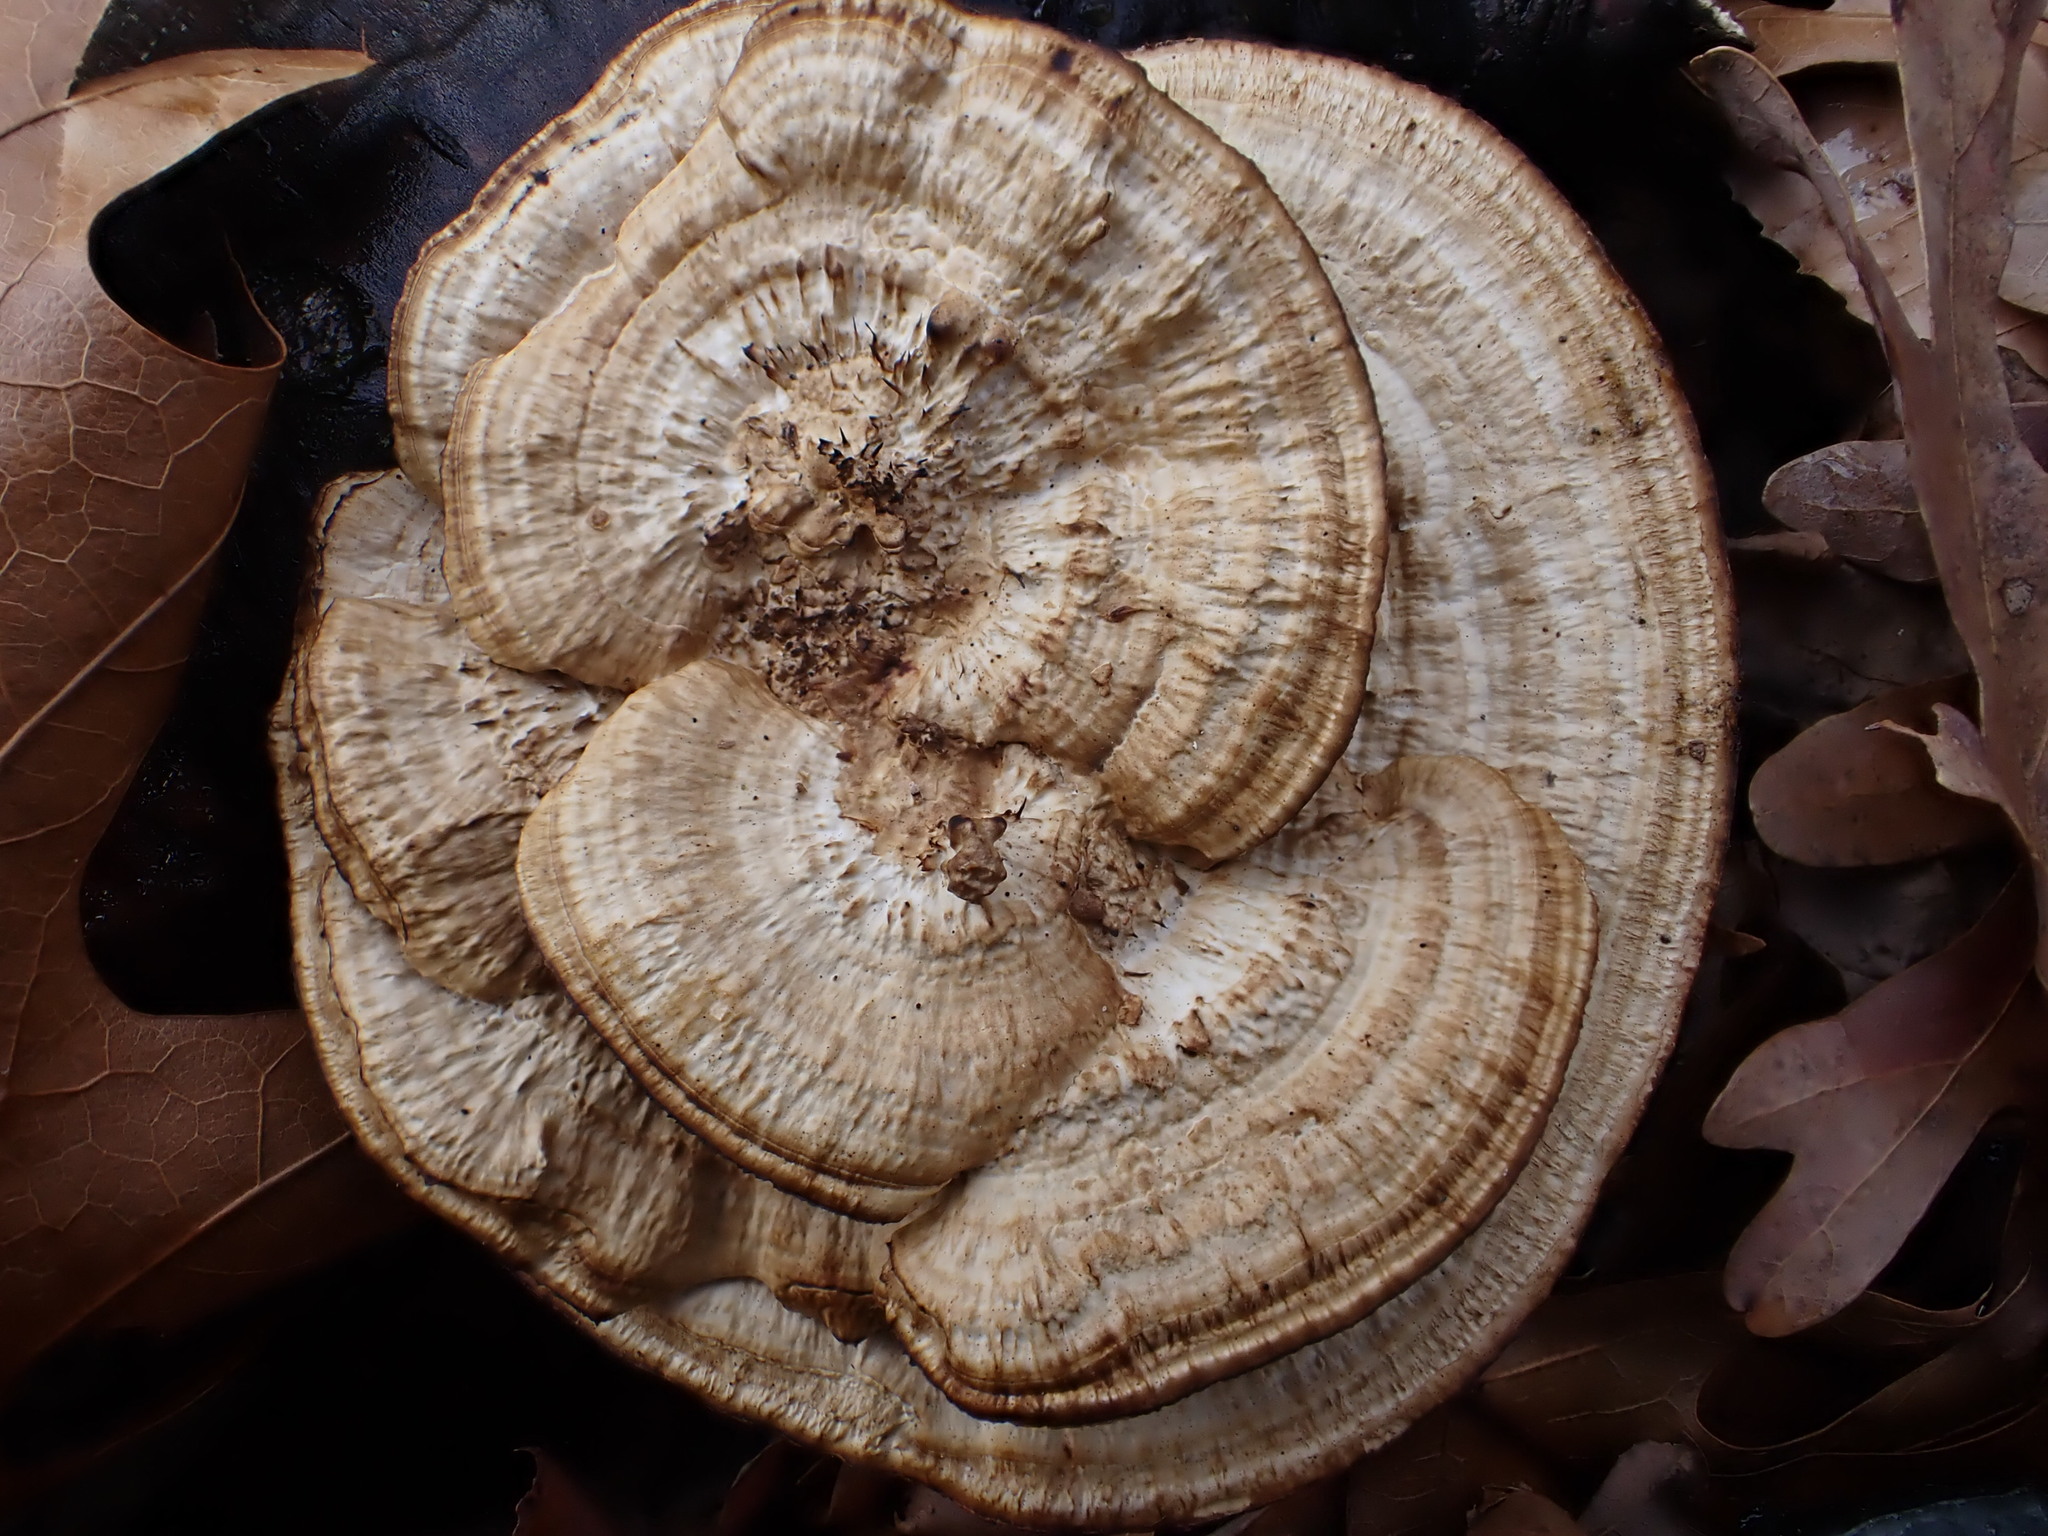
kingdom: Fungi
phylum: Basidiomycota
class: Agaricomycetes
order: Polyporales
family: Polyporaceae
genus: Daedaleopsis
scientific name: Daedaleopsis confragosa
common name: Blushing bracket
